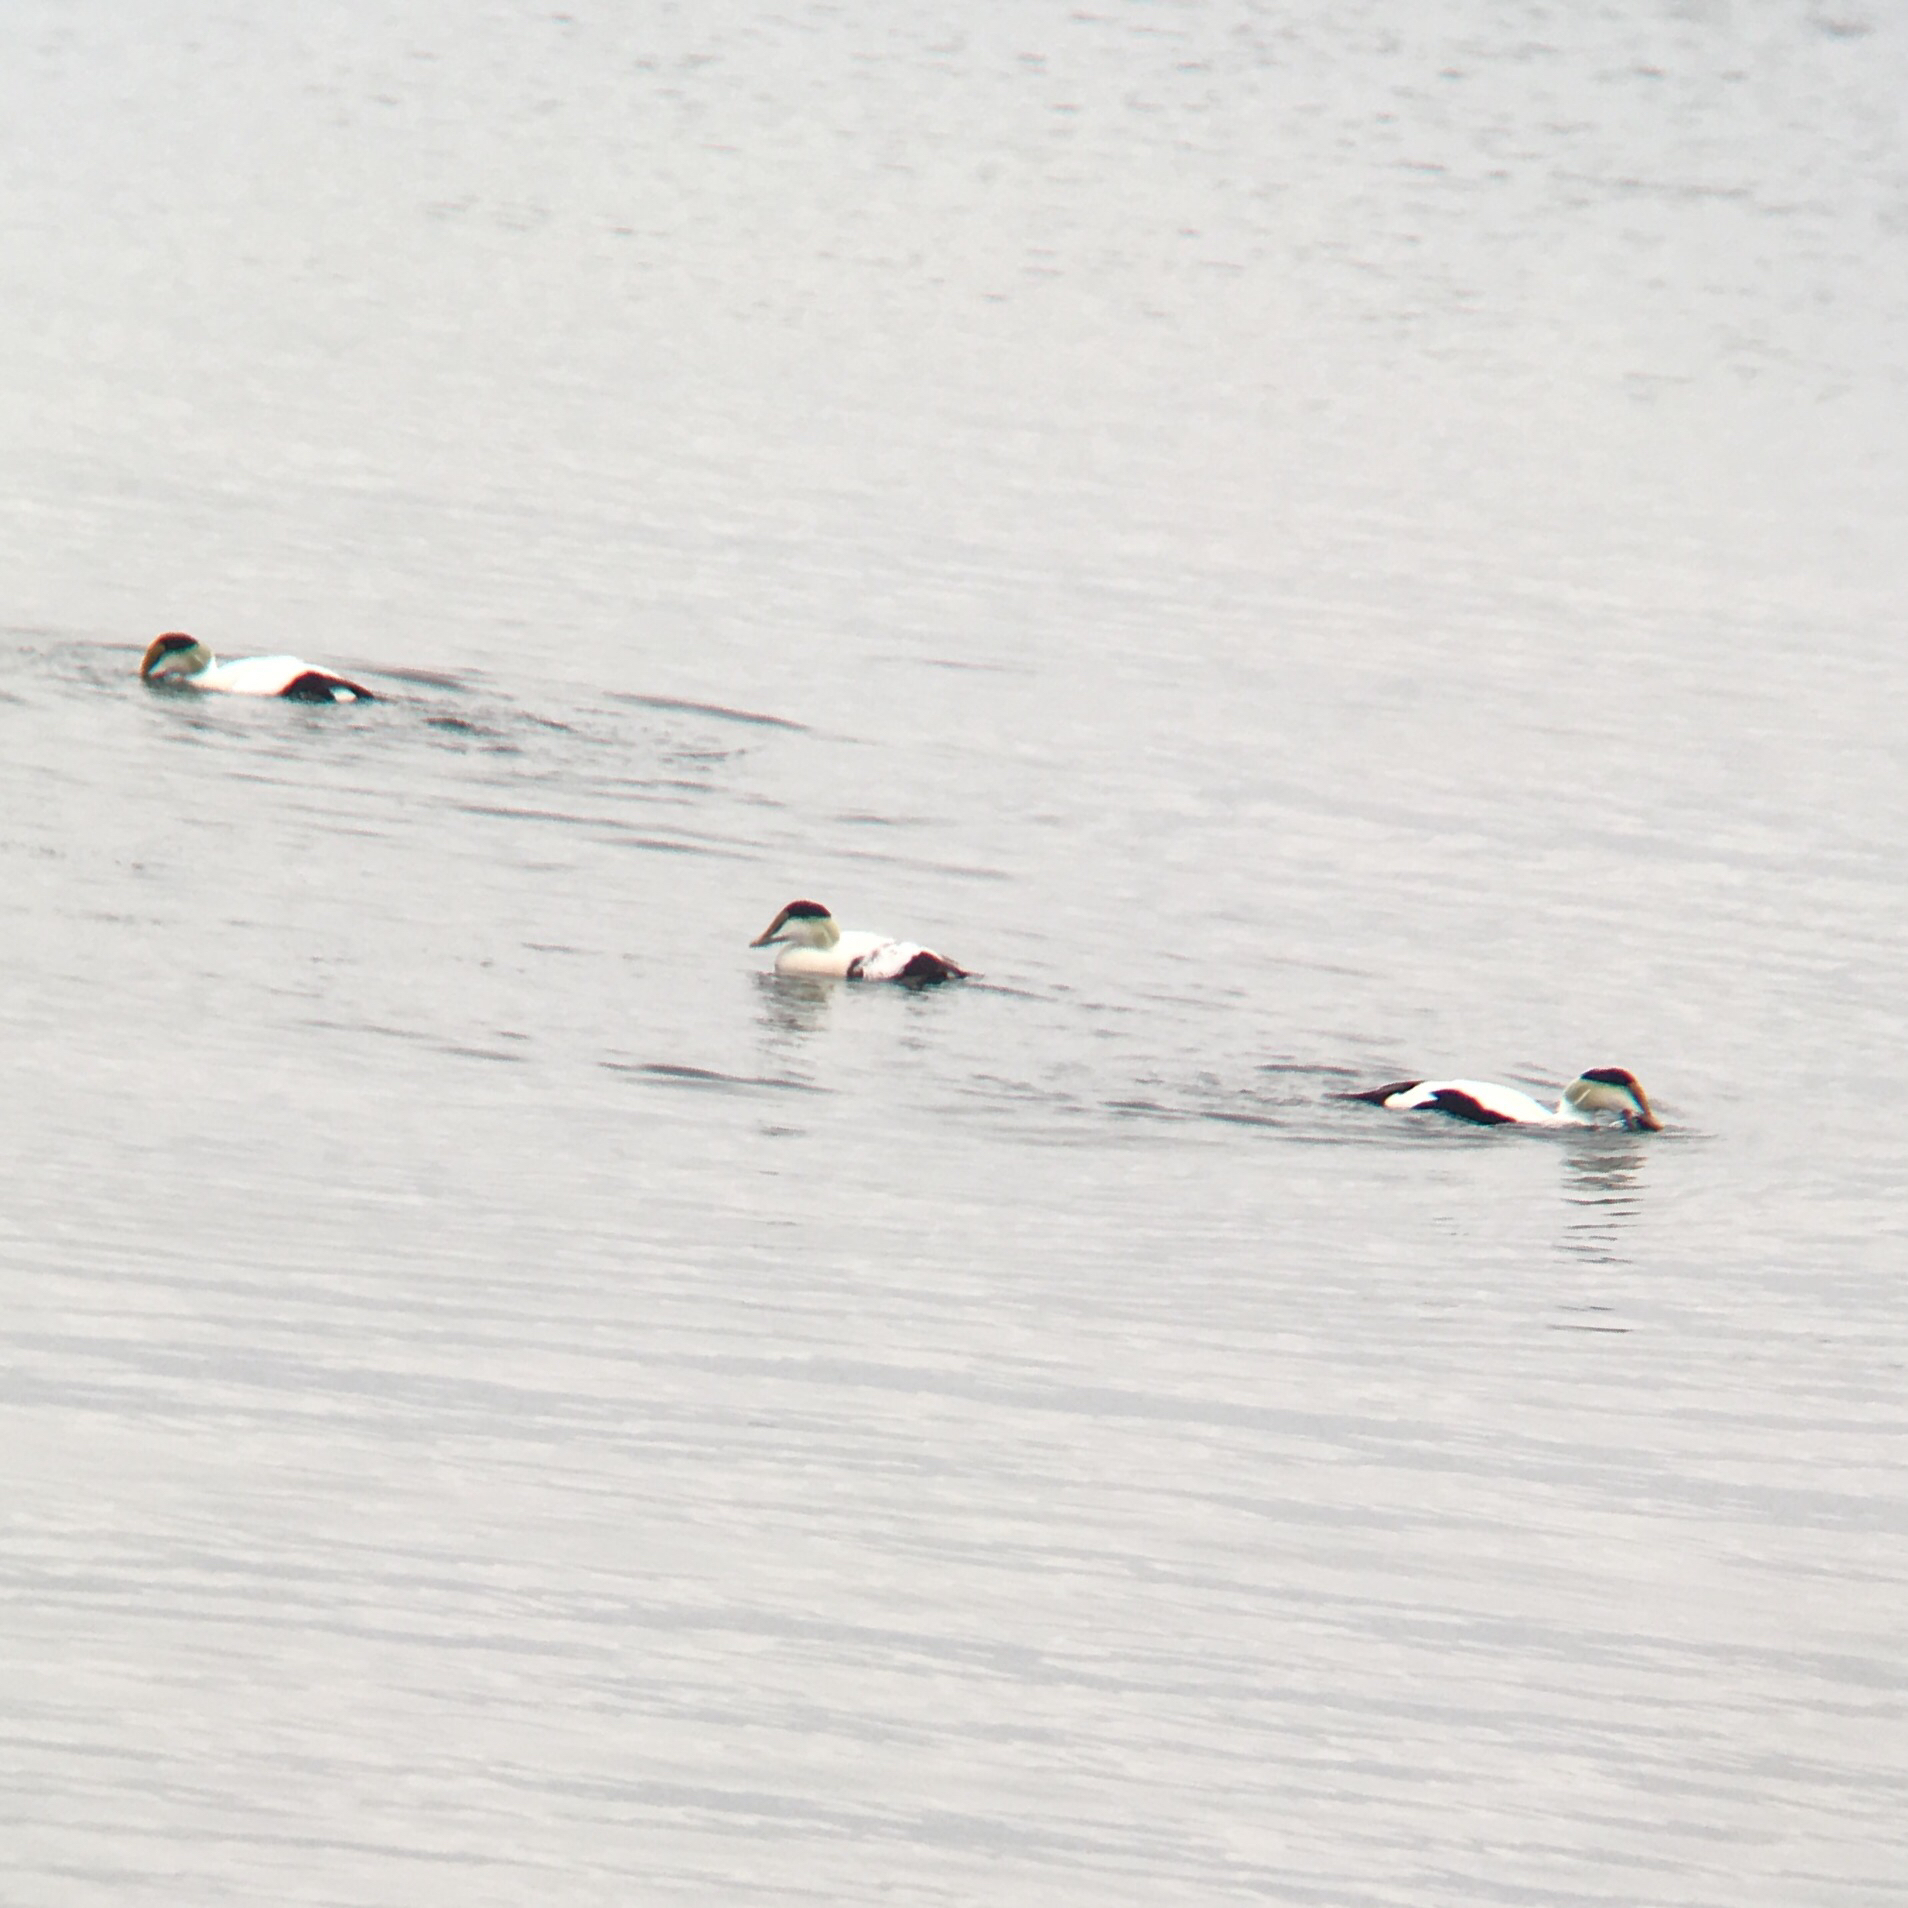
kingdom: Animalia
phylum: Chordata
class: Aves
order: Anseriformes
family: Anatidae
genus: Somateria
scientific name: Somateria mollissima
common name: Common eider
